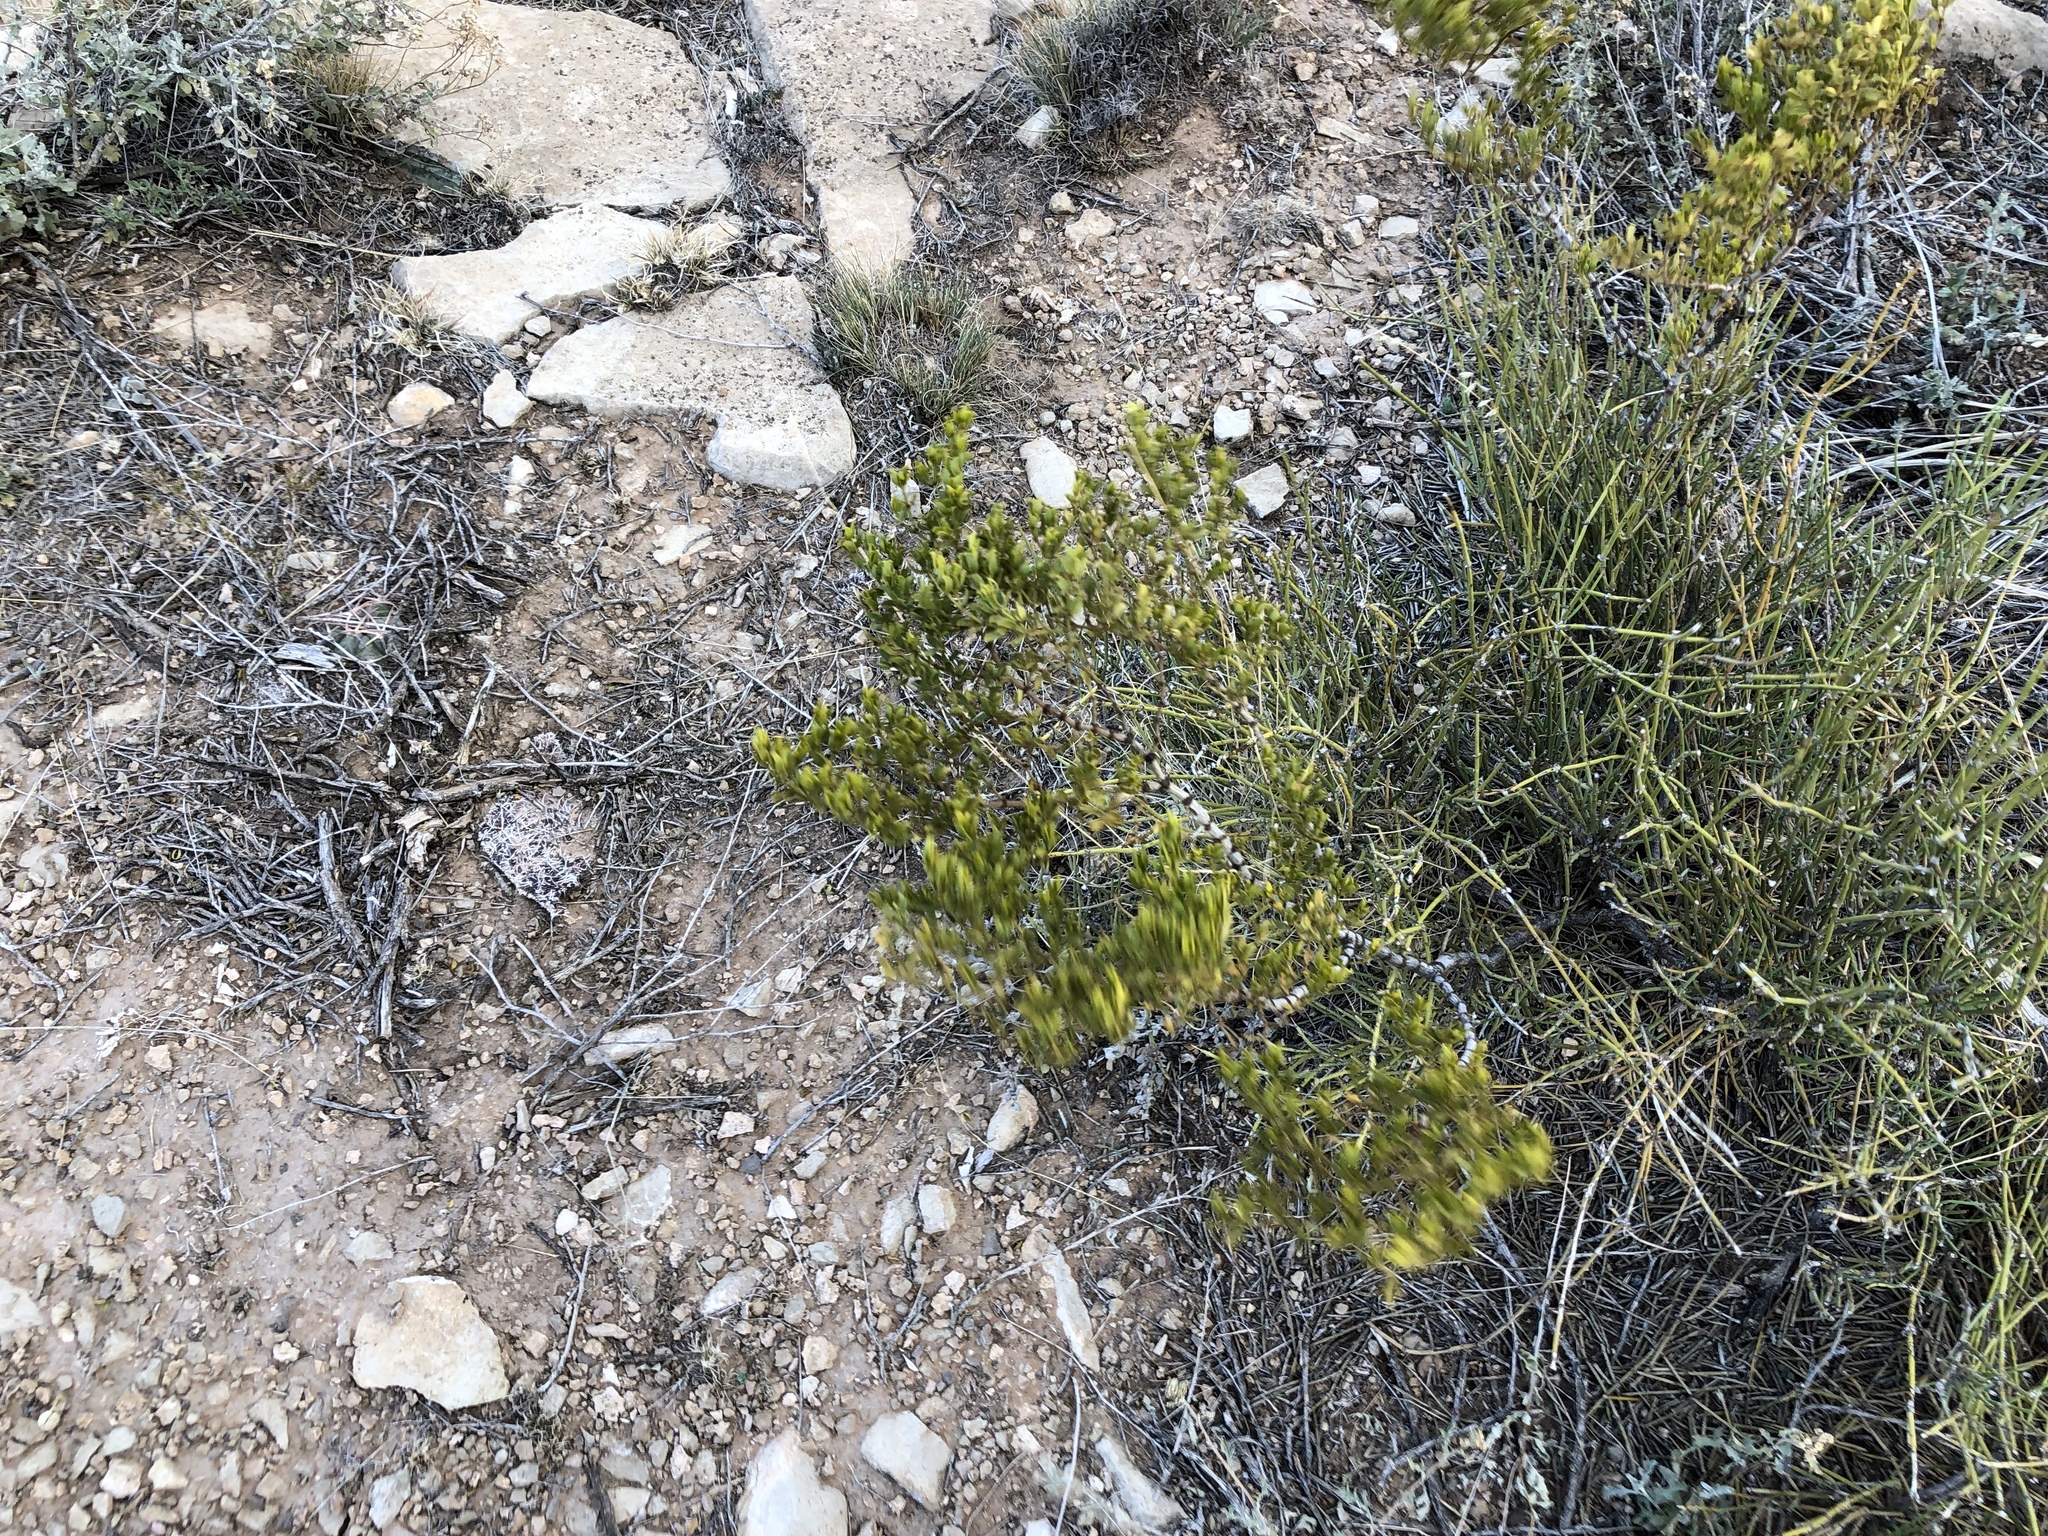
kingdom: Plantae
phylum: Tracheophyta
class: Magnoliopsida
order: Zygophyllales
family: Zygophyllaceae
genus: Larrea
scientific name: Larrea tridentata
